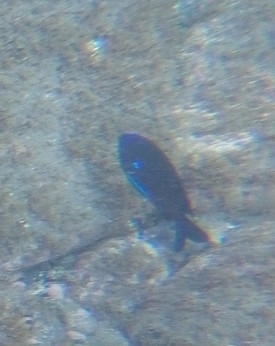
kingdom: Animalia
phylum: Chordata
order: Perciformes
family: Pomacentridae
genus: Similiparma
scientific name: Similiparma lurida
